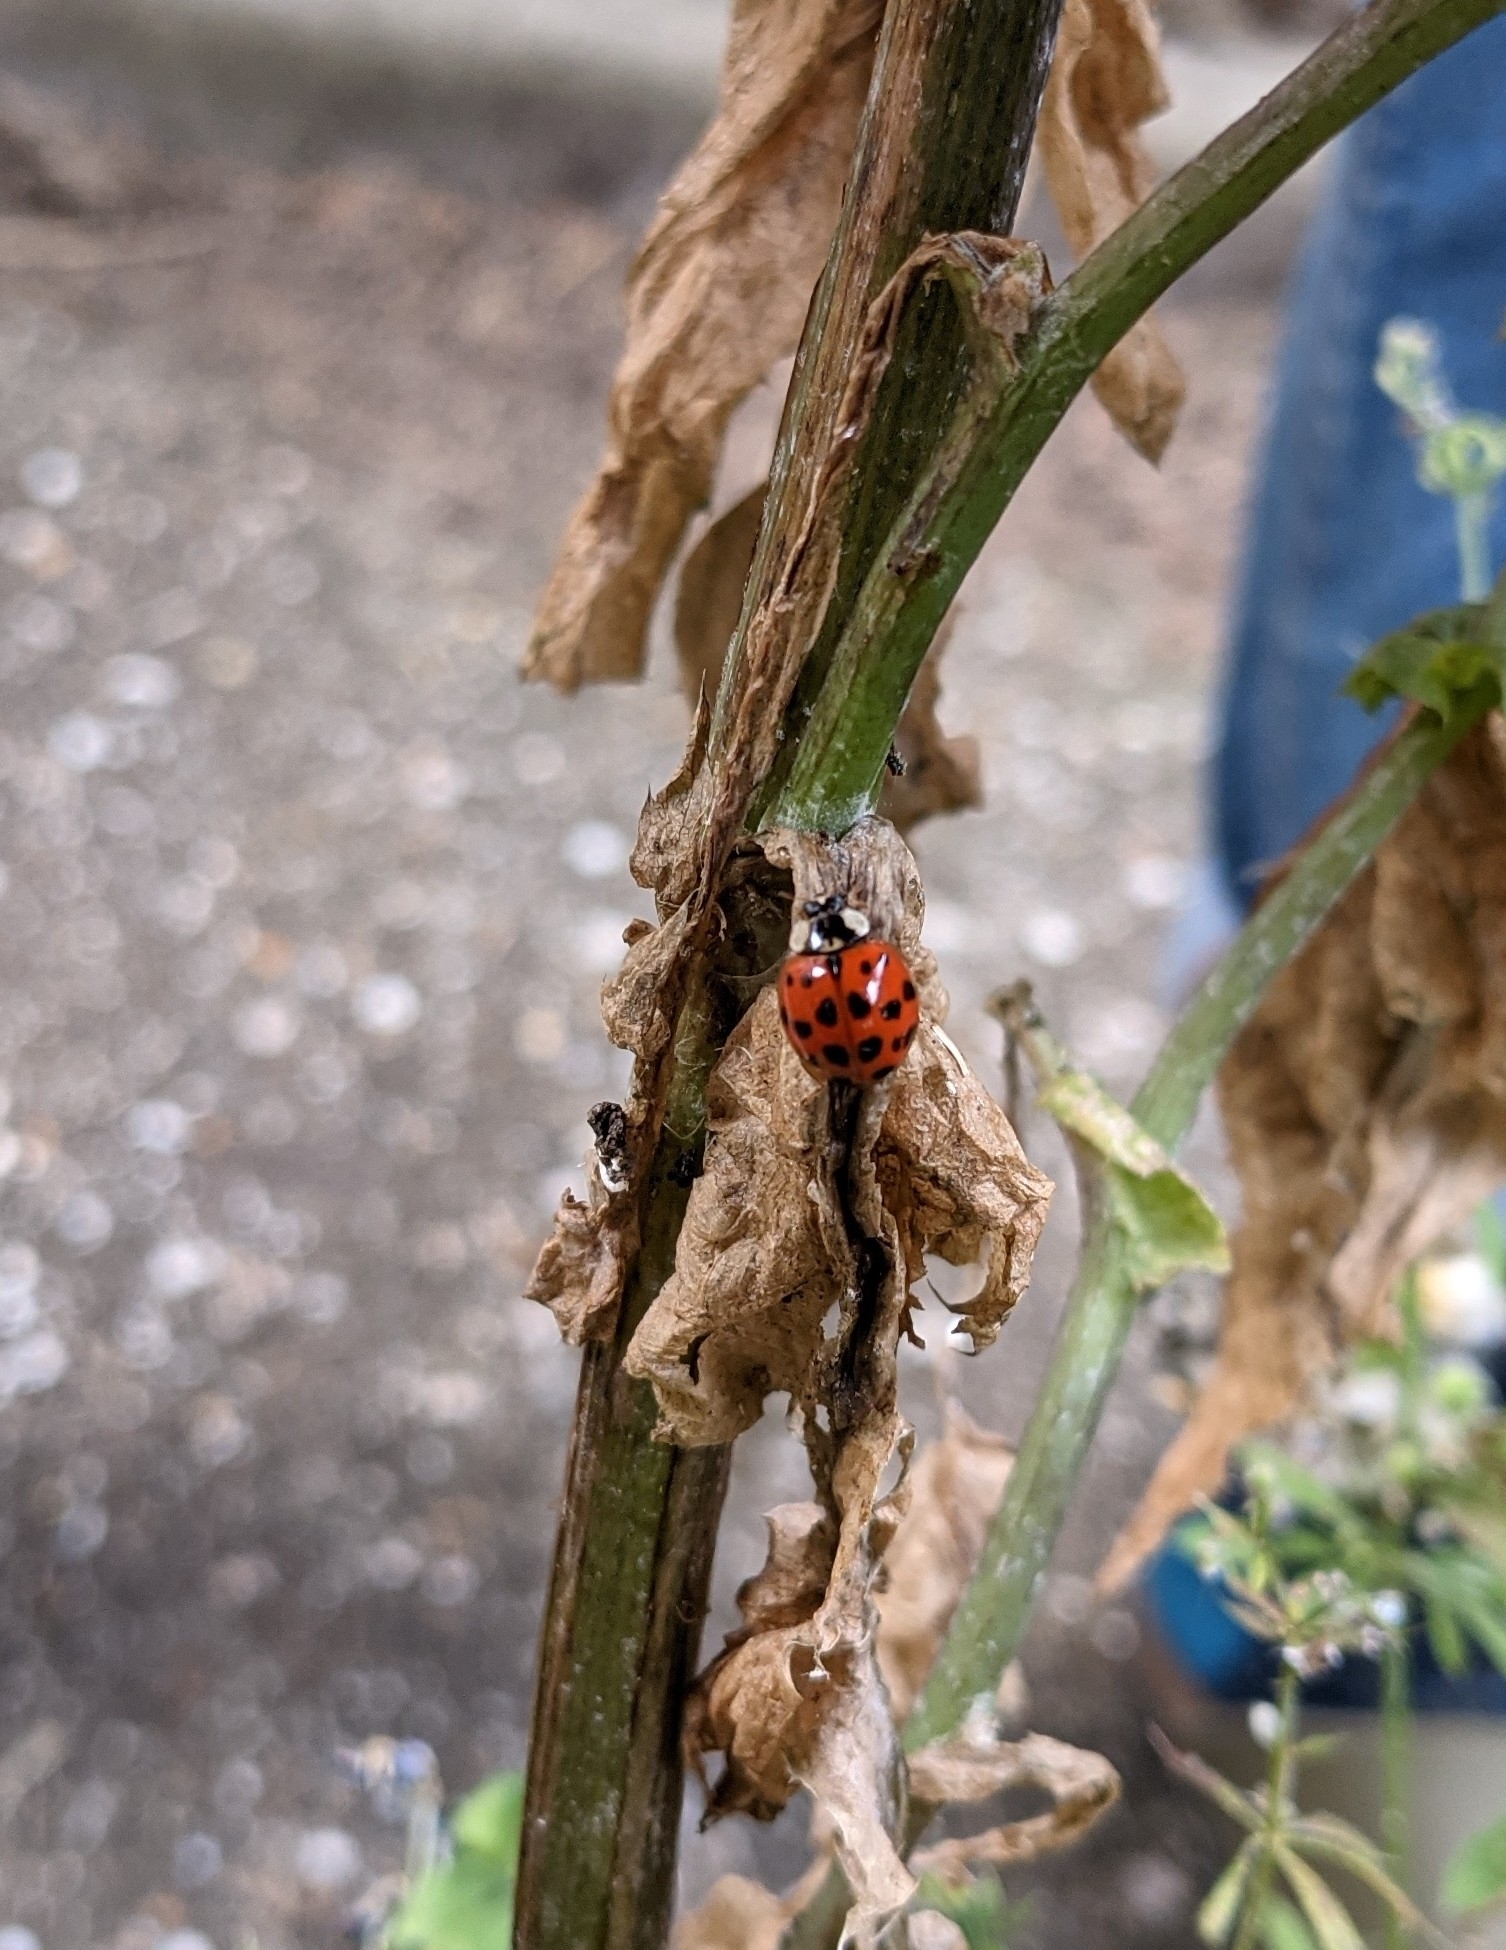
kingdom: Animalia
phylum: Arthropoda
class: Insecta
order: Coleoptera
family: Coccinellidae
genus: Harmonia
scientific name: Harmonia axyridis
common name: Harlequin ladybird
